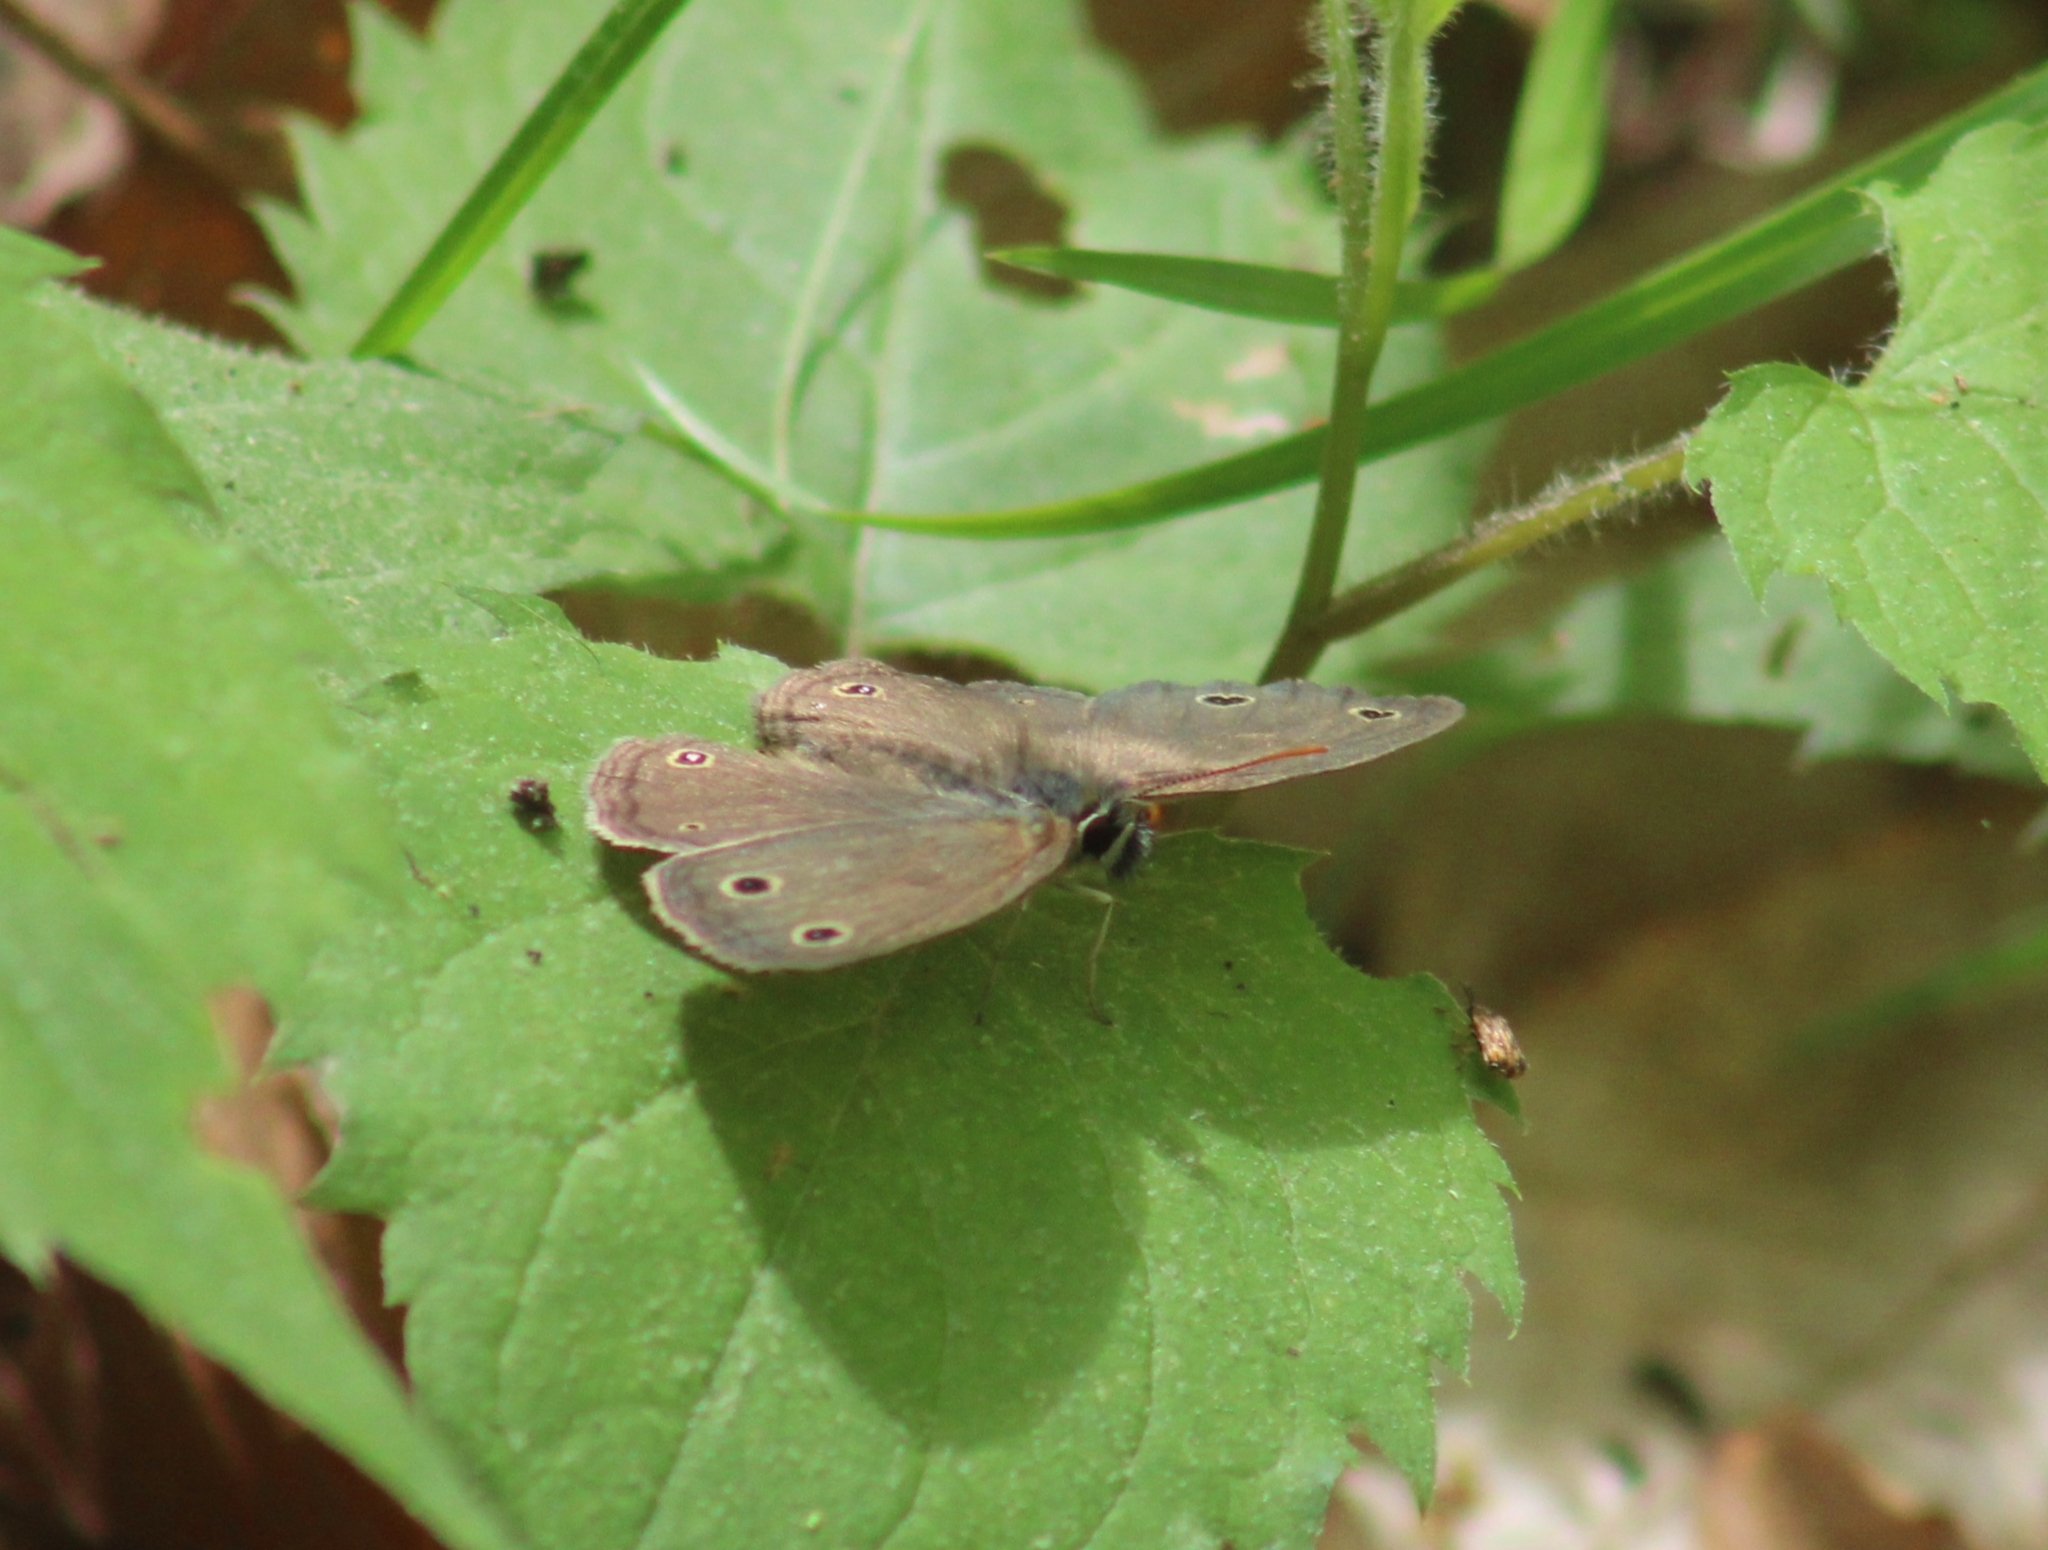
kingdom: Animalia
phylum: Arthropoda
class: Insecta
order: Lepidoptera
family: Nymphalidae
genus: Euptychia
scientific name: Euptychia cymela
